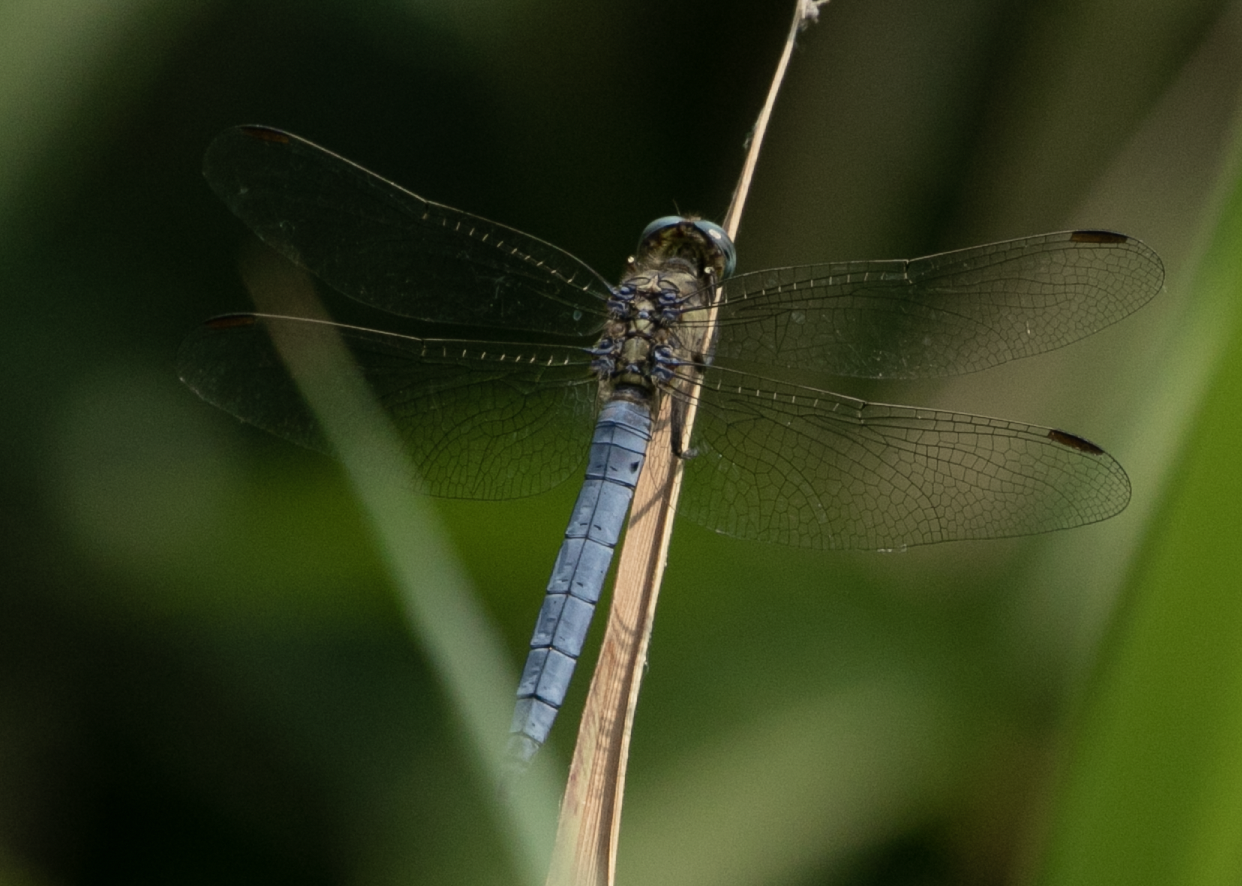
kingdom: Animalia
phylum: Arthropoda
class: Insecta
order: Odonata
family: Libellulidae
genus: Orthetrum
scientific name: Orthetrum coerulescens
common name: Keeled skimmer
